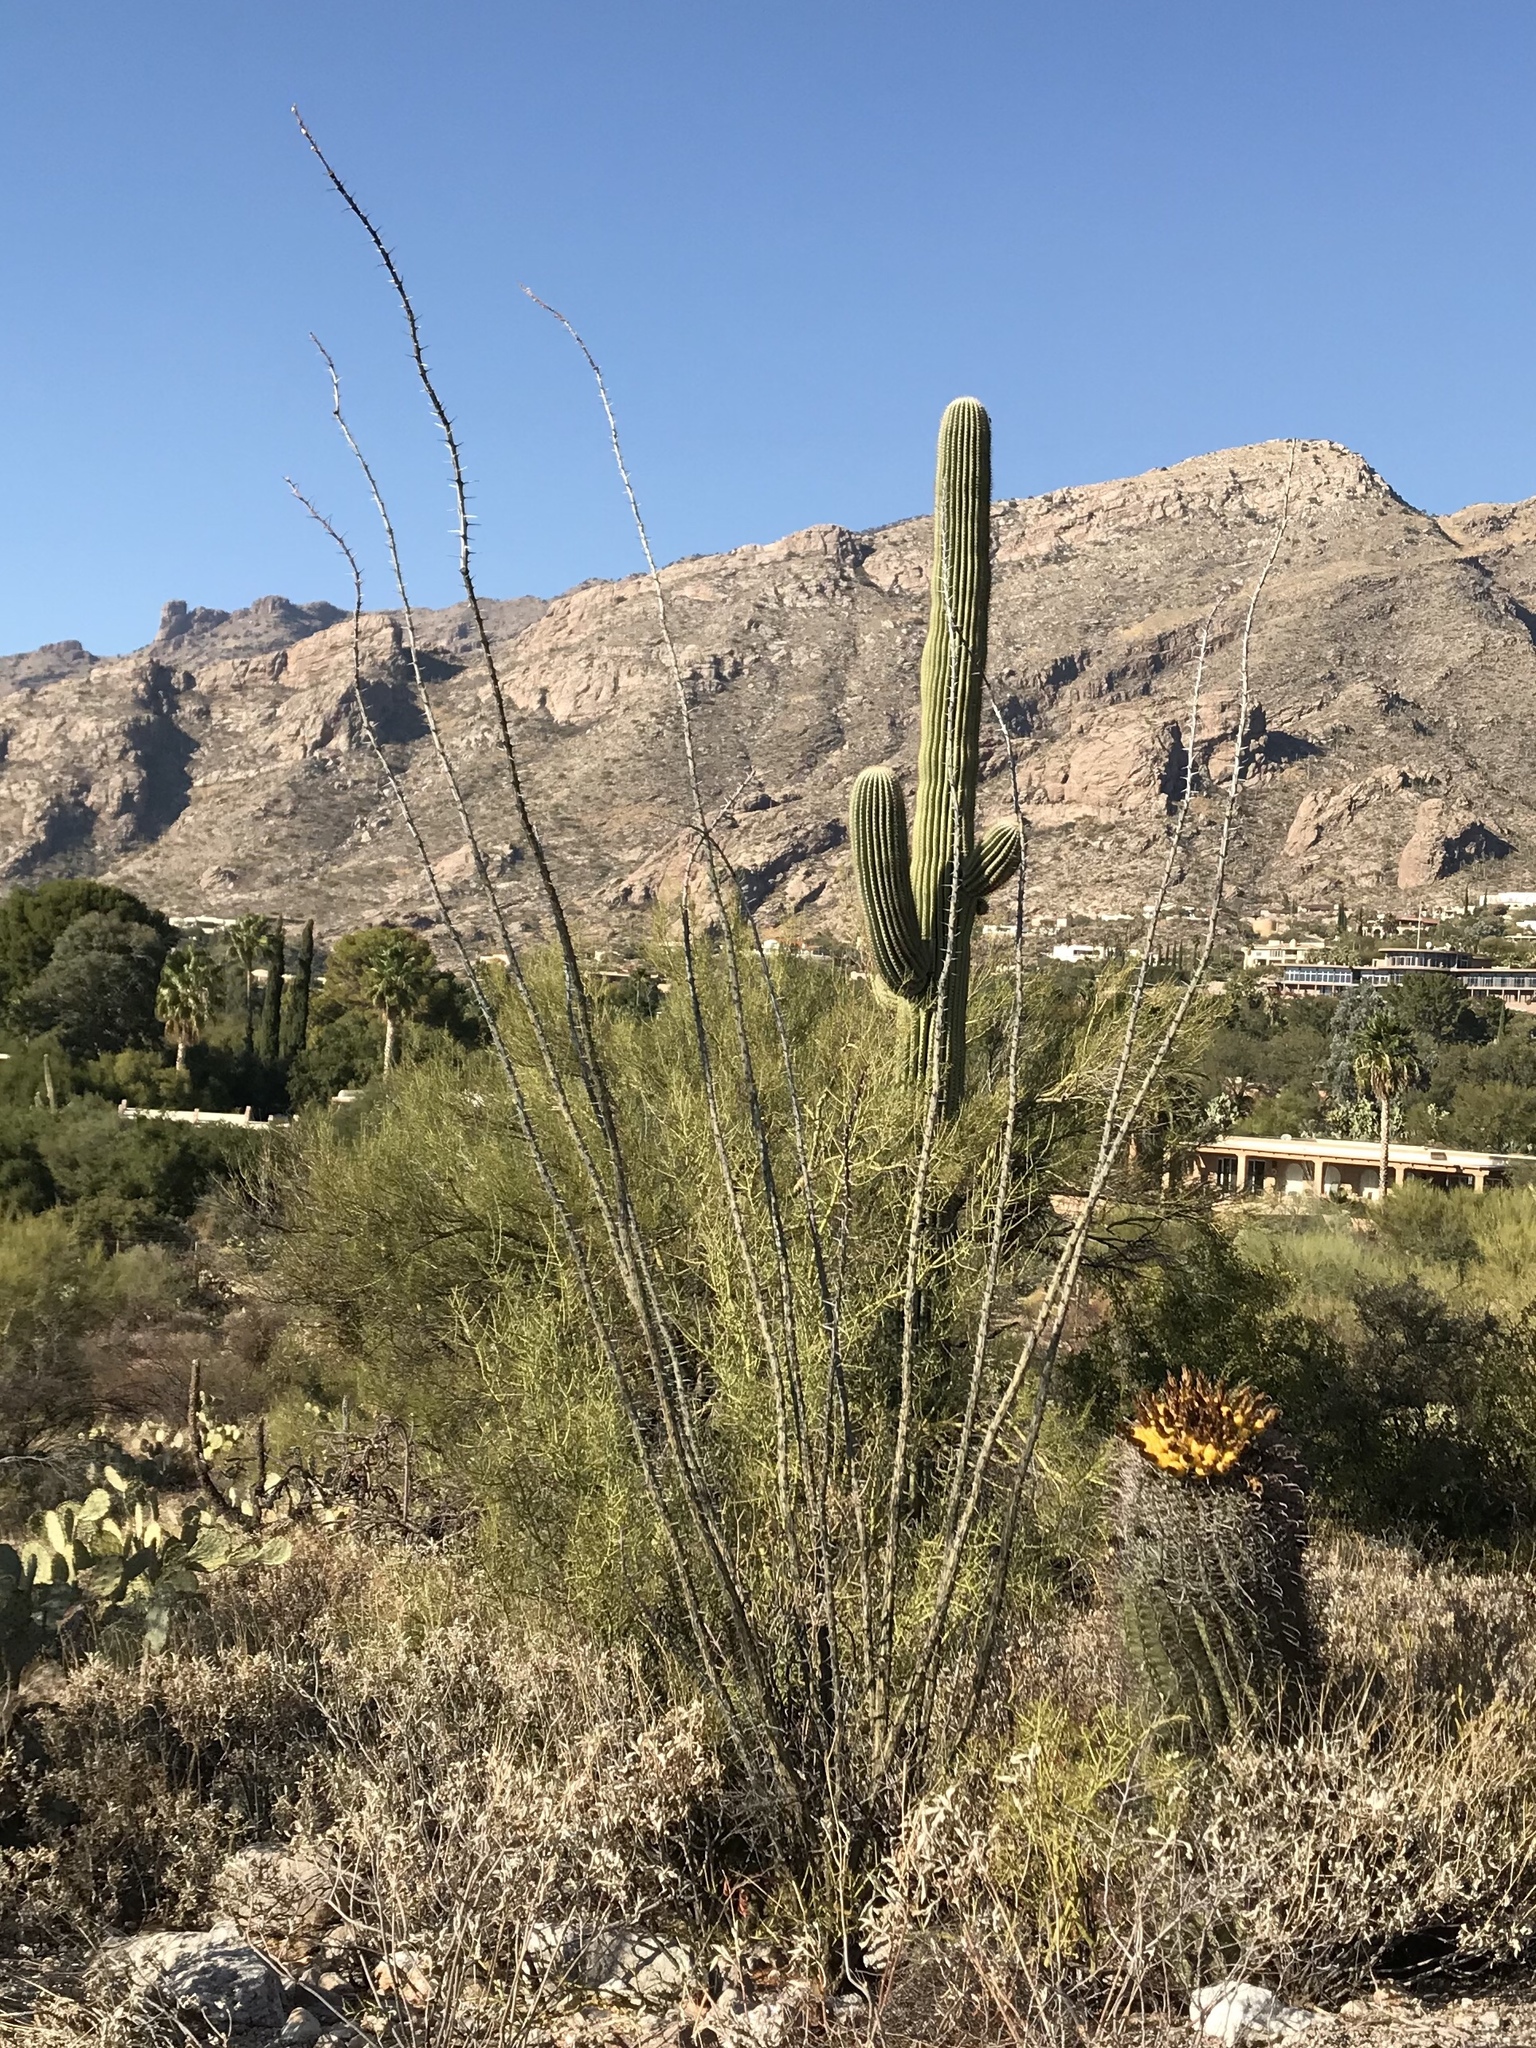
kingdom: Plantae
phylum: Tracheophyta
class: Magnoliopsida
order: Caryophyllales
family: Cactaceae
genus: Ferocactus
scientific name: Ferocactus wislizeni
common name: Candy barrel cactus
